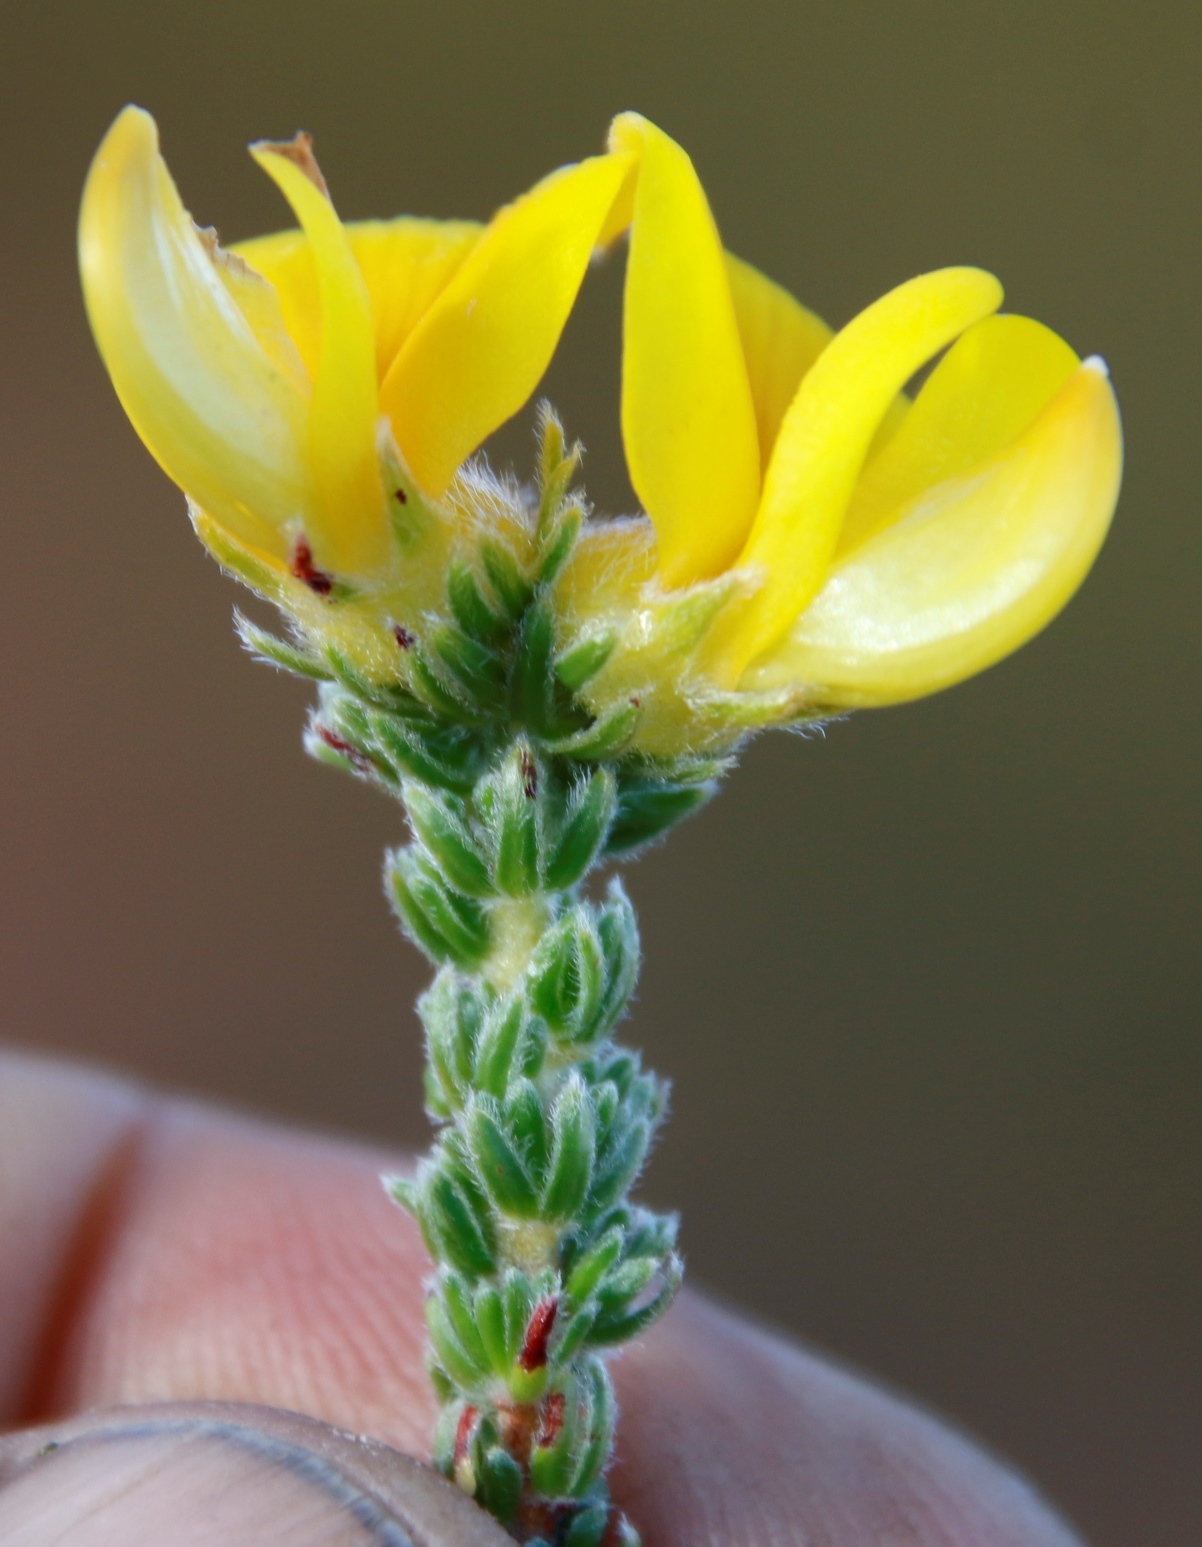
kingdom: Plantae
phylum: Tracheophyta
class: Magnoliopsida
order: Fabales
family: Fabaceae
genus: Aspalathus
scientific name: Aspalathus triquetra
